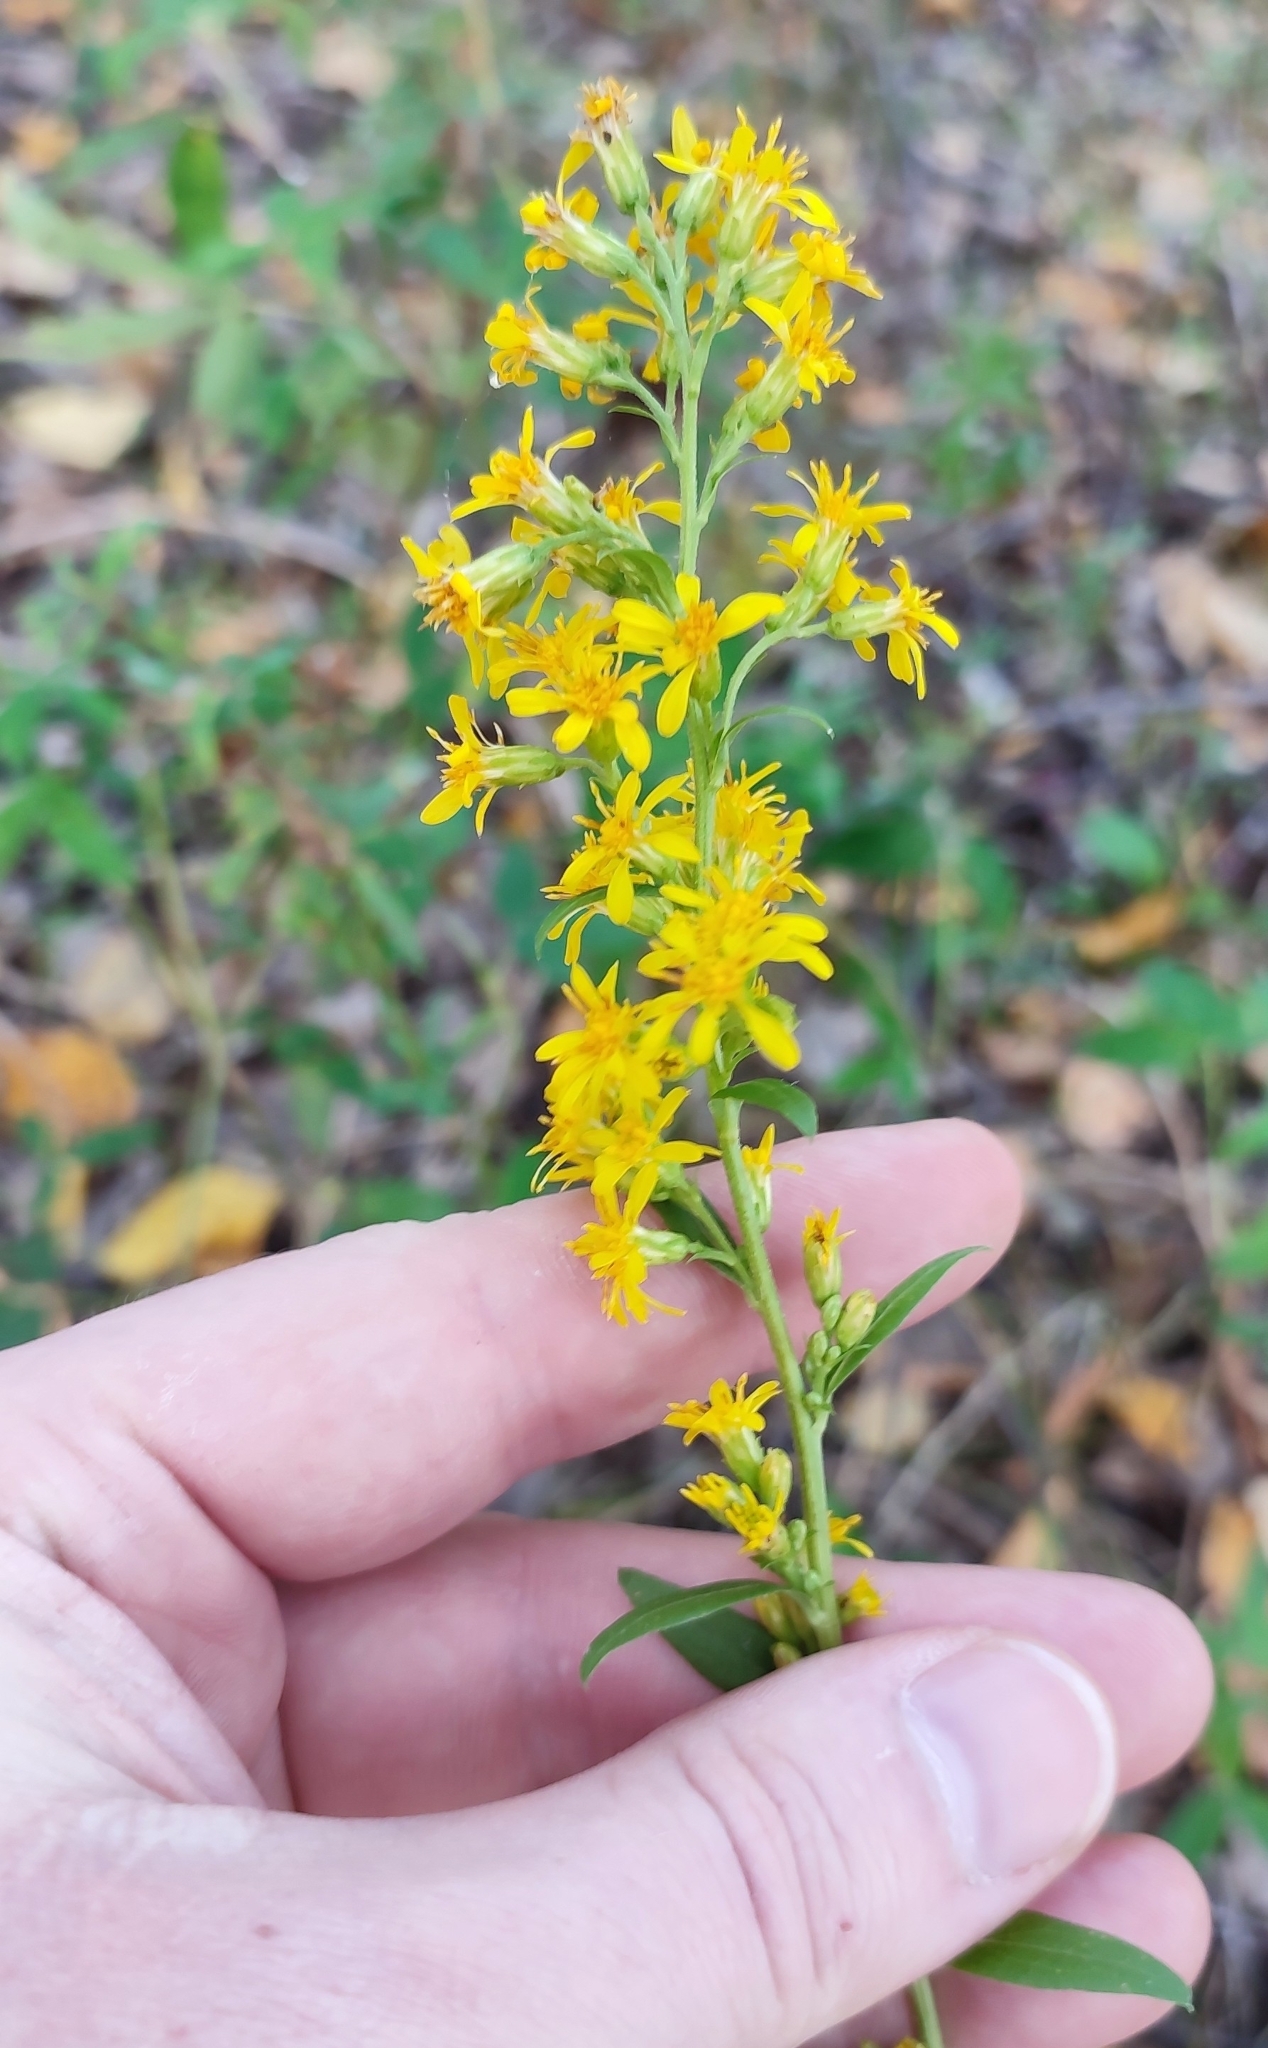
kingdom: Plantae
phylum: Tracheophyta
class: Magnoliopsida
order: Asterales
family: Asteraceae
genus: Solidago
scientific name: Solidago virgaurea
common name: Goldenrod
